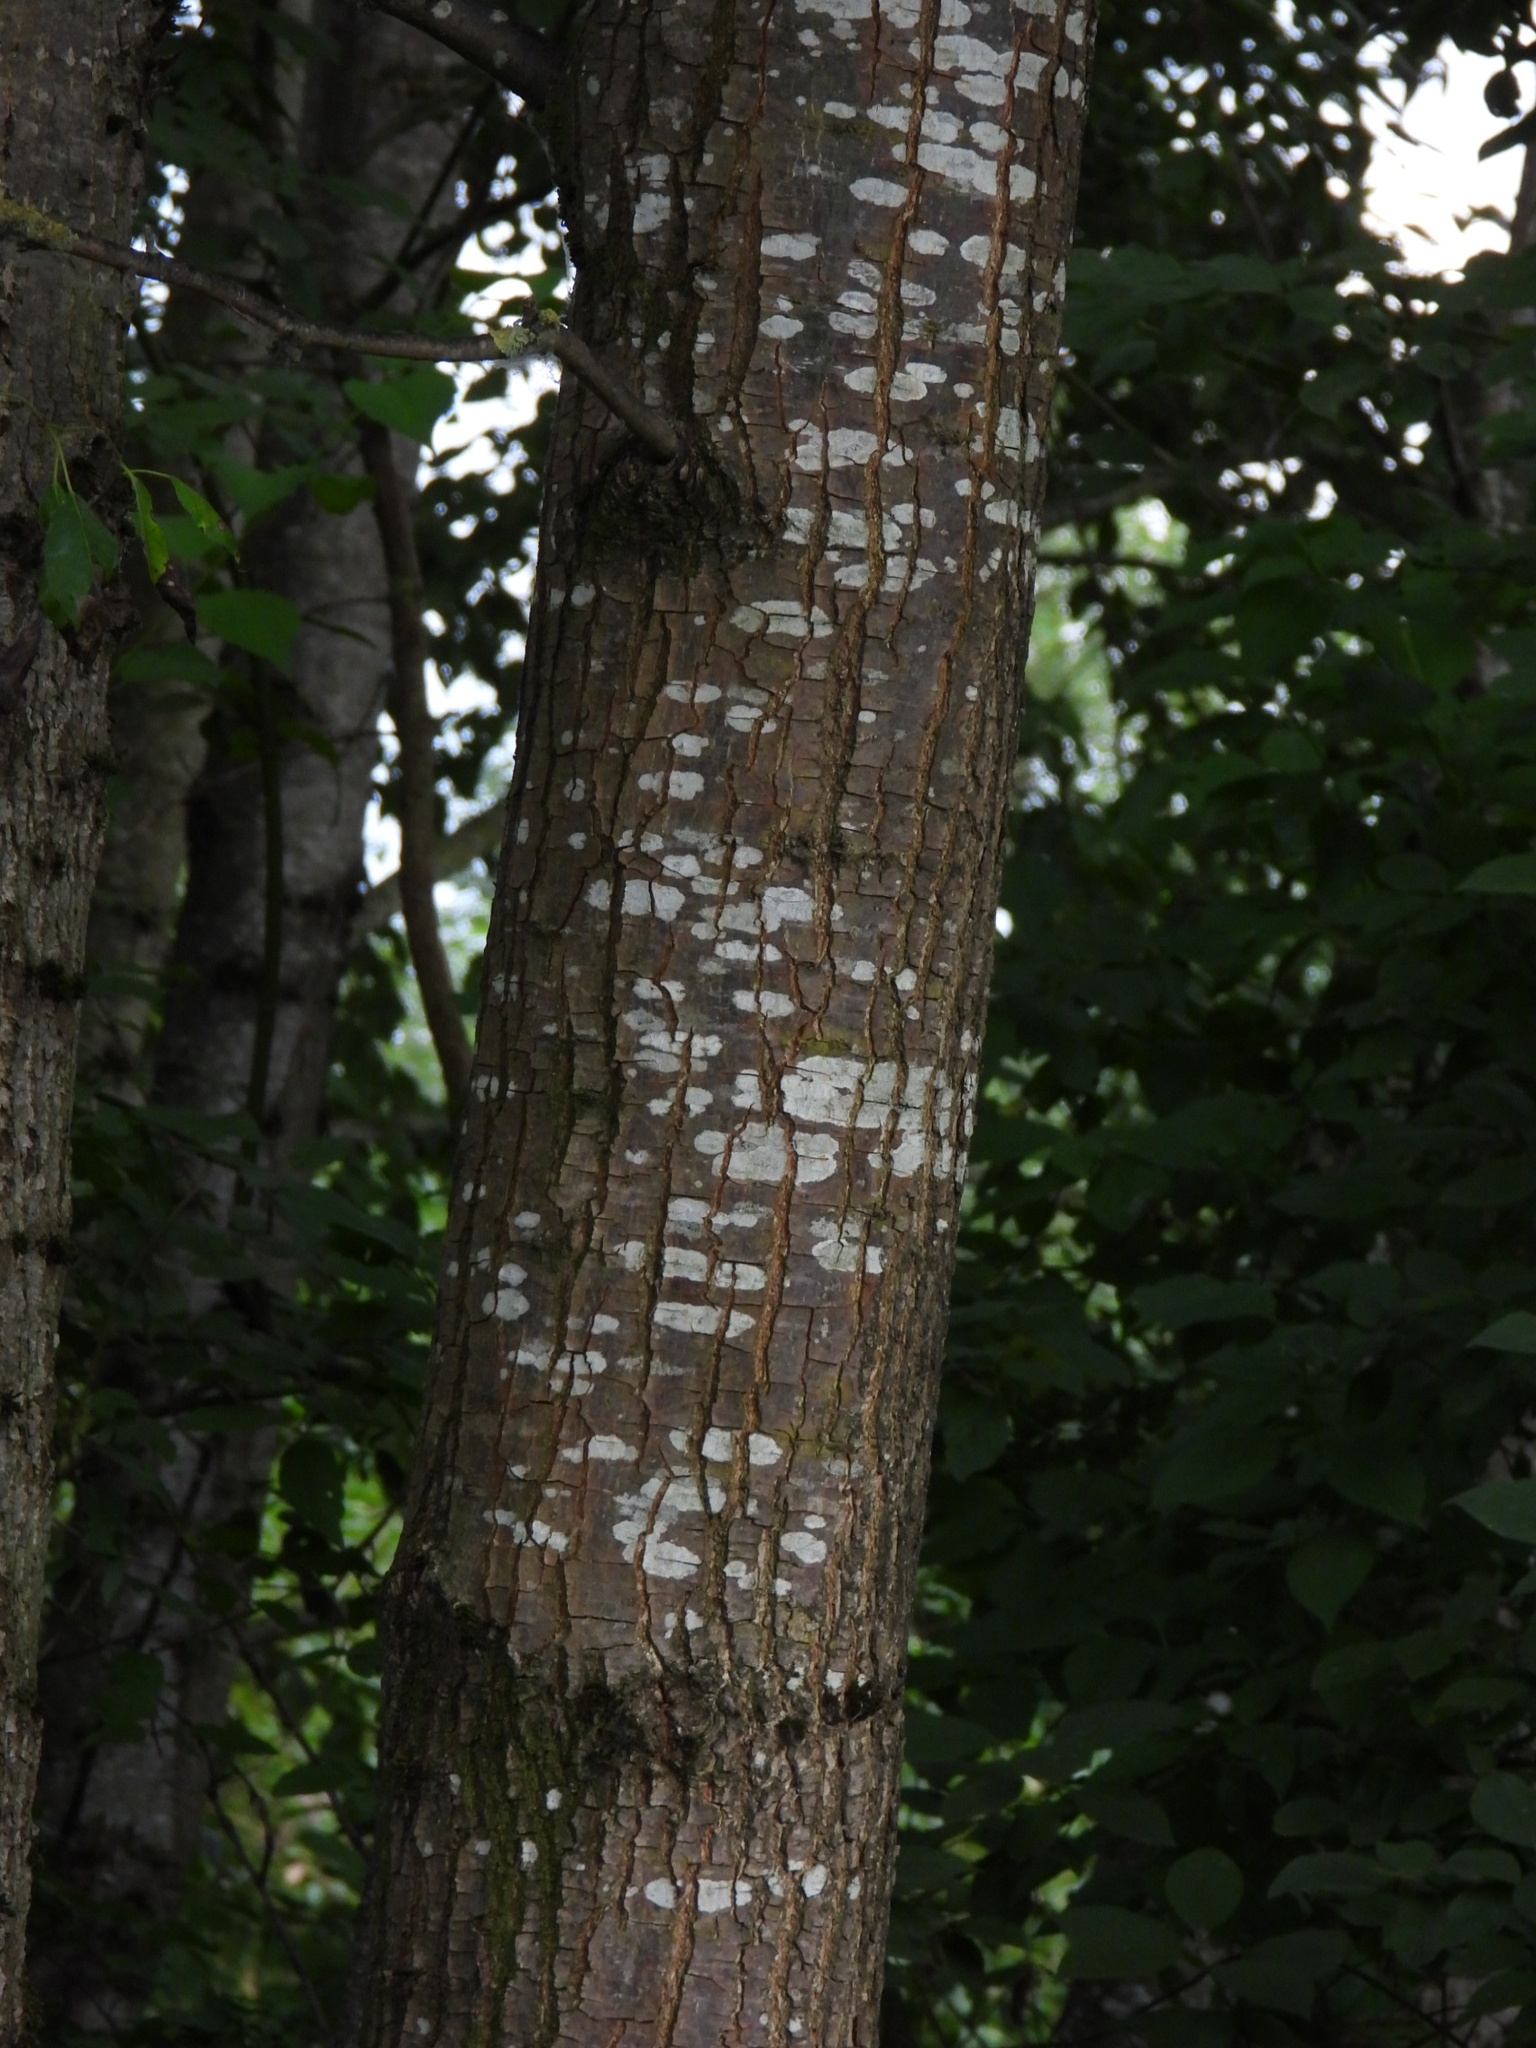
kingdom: Plantae
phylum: Tracheophyta
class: Magnoliopsida
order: Fagales
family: Fagaceae
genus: Quercus
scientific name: Quercus robur
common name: Pedunculate oak
